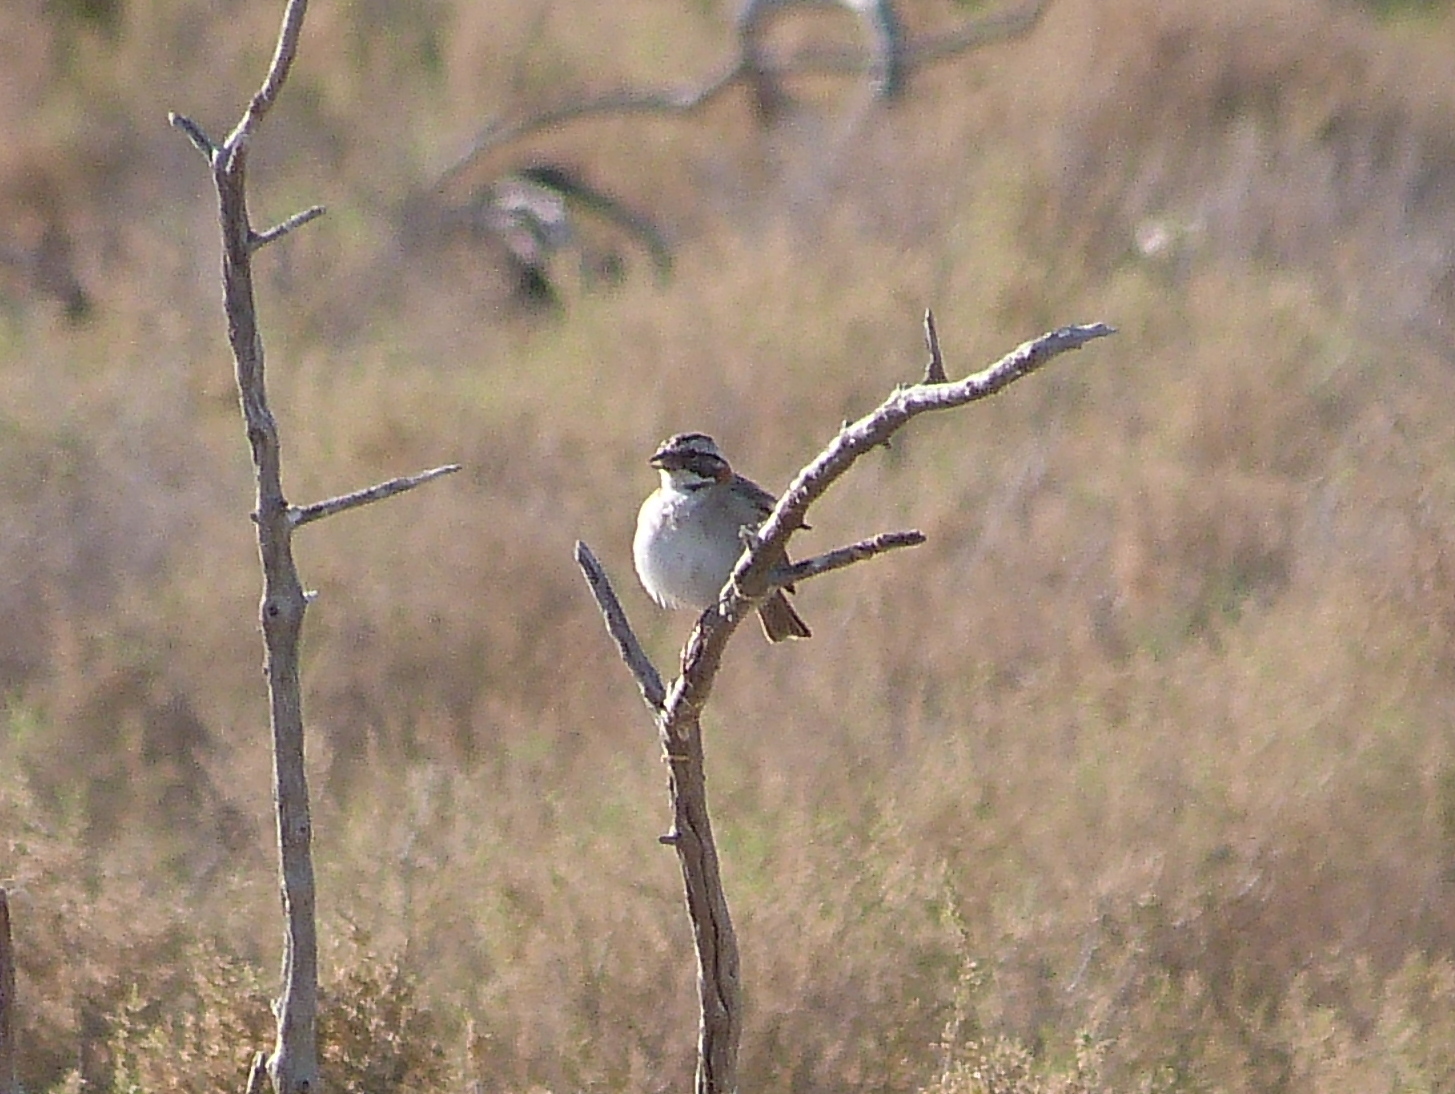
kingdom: Animalia
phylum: Chordata
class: Aves
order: Passeriformes
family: Passerellidae
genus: Zonotrichia
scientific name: Zonotrichia capensis
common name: Rufous-collared sparrow
